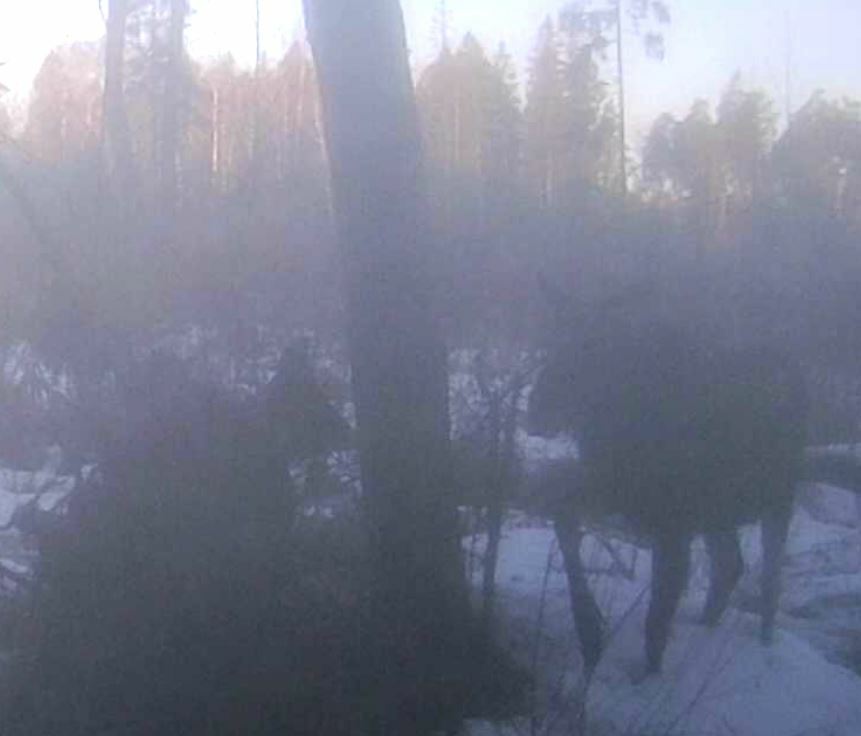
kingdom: Animalia
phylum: Chordata
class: Mammalia
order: Artiodactyla
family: Cervidae
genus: Alces
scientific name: Alces alces
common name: Moose
